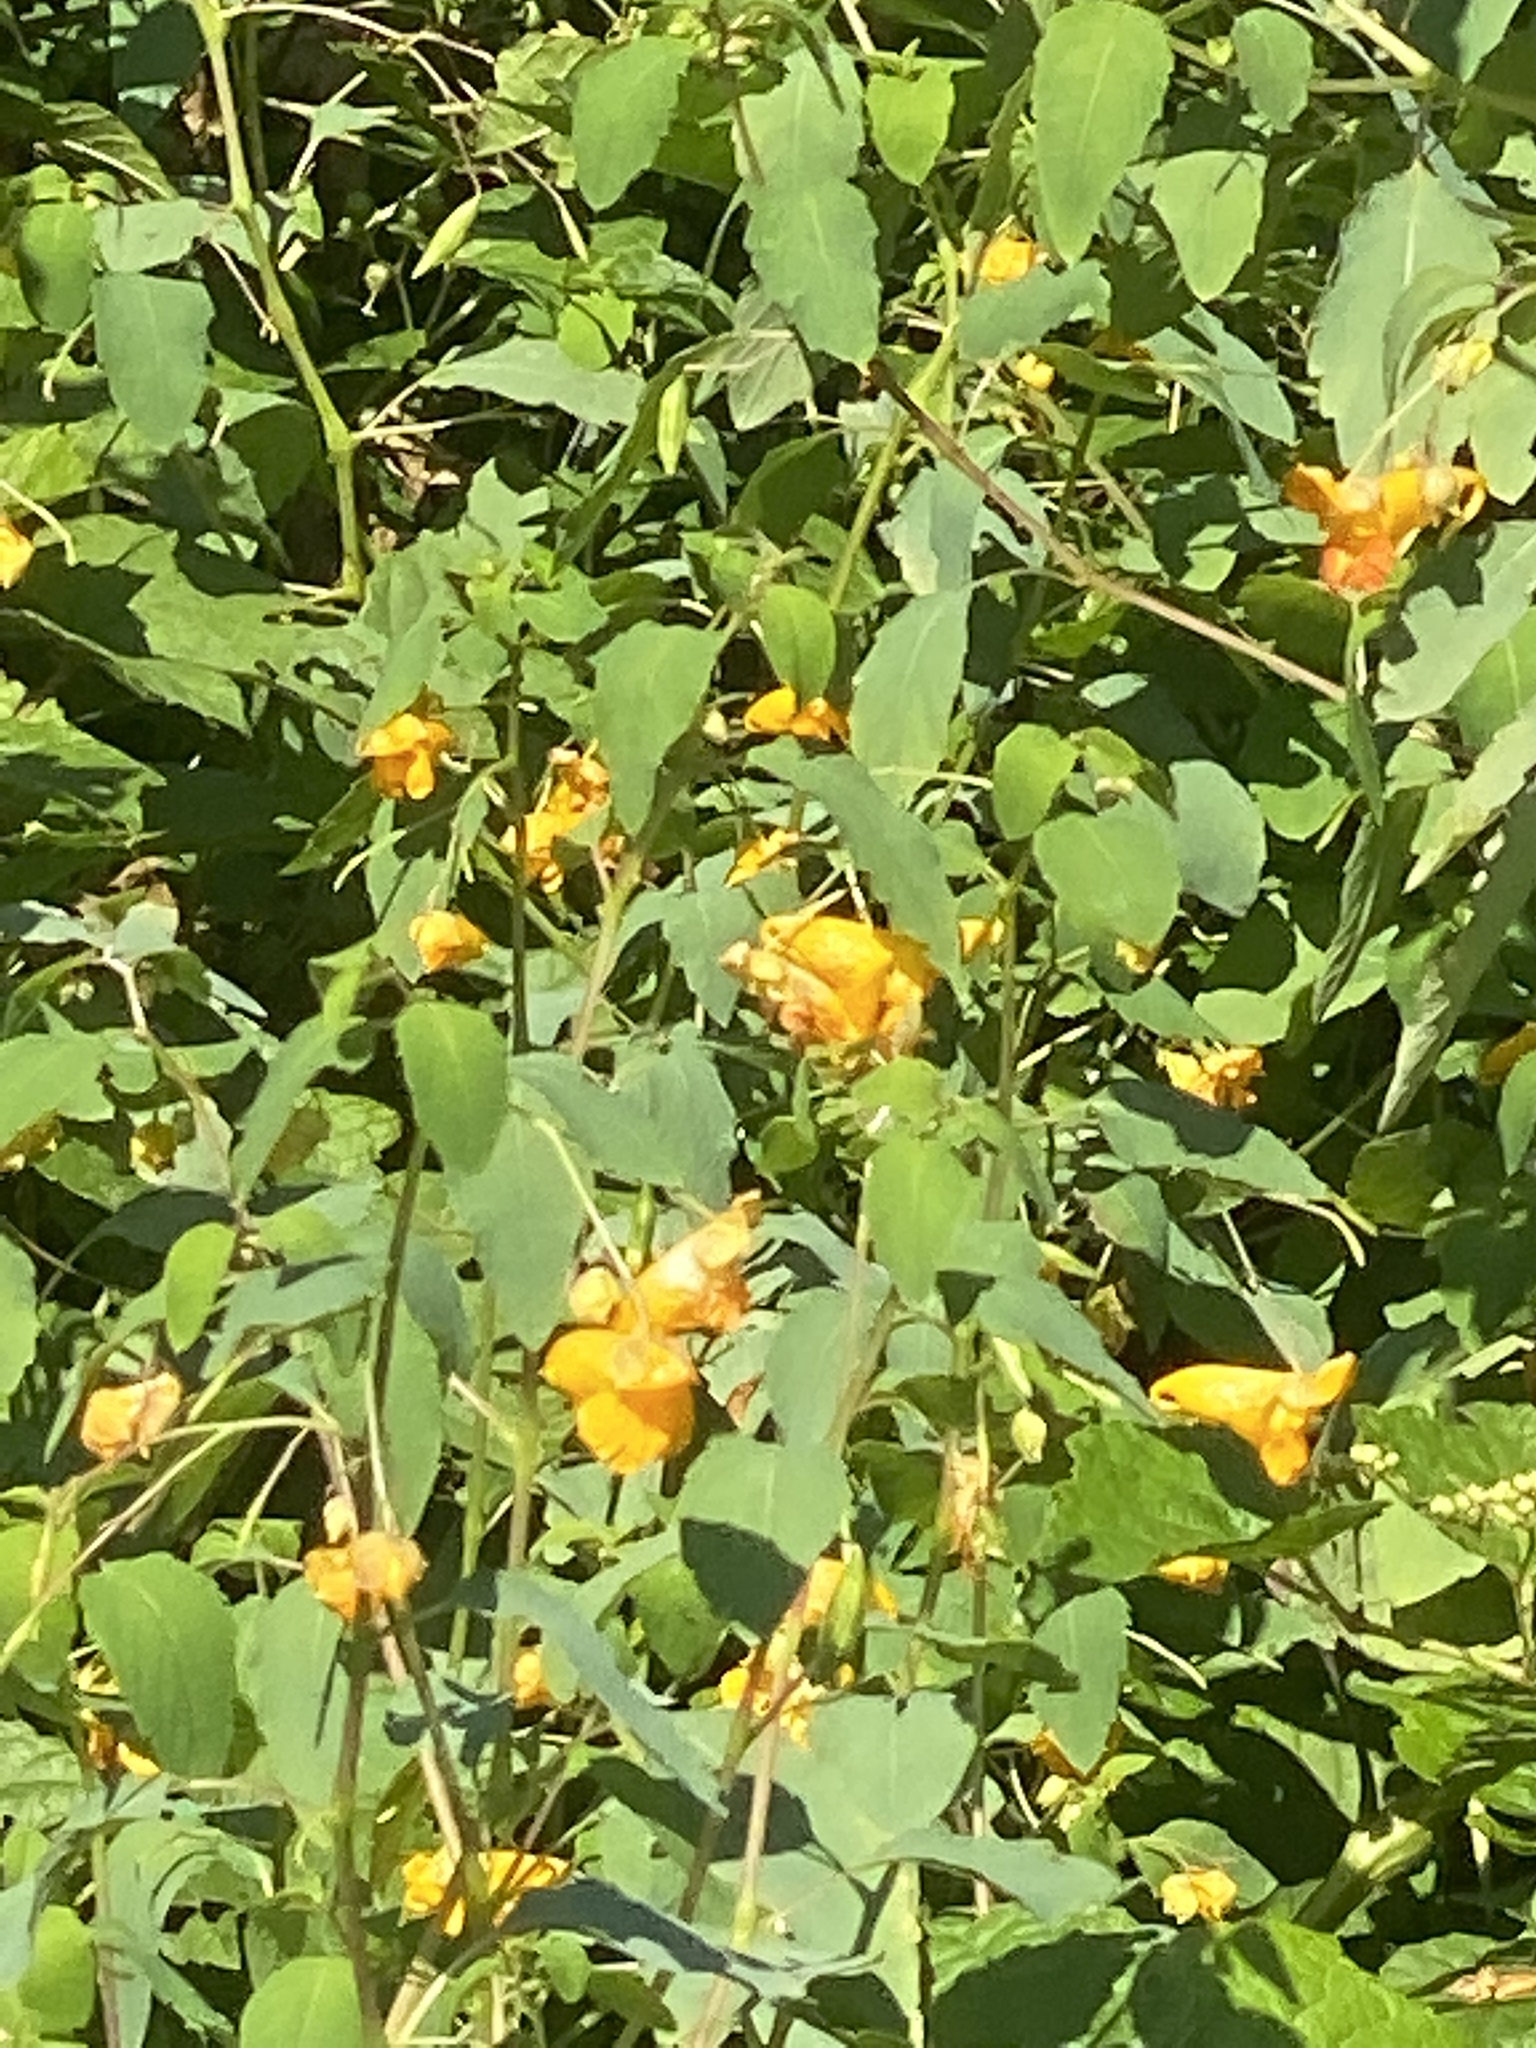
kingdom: Plantae
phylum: Tracheophyta
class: Magnoliopsida
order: Ericales
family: Balsaminaceae
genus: Impatiens
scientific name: Impatiens capensis
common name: Orange balsam
